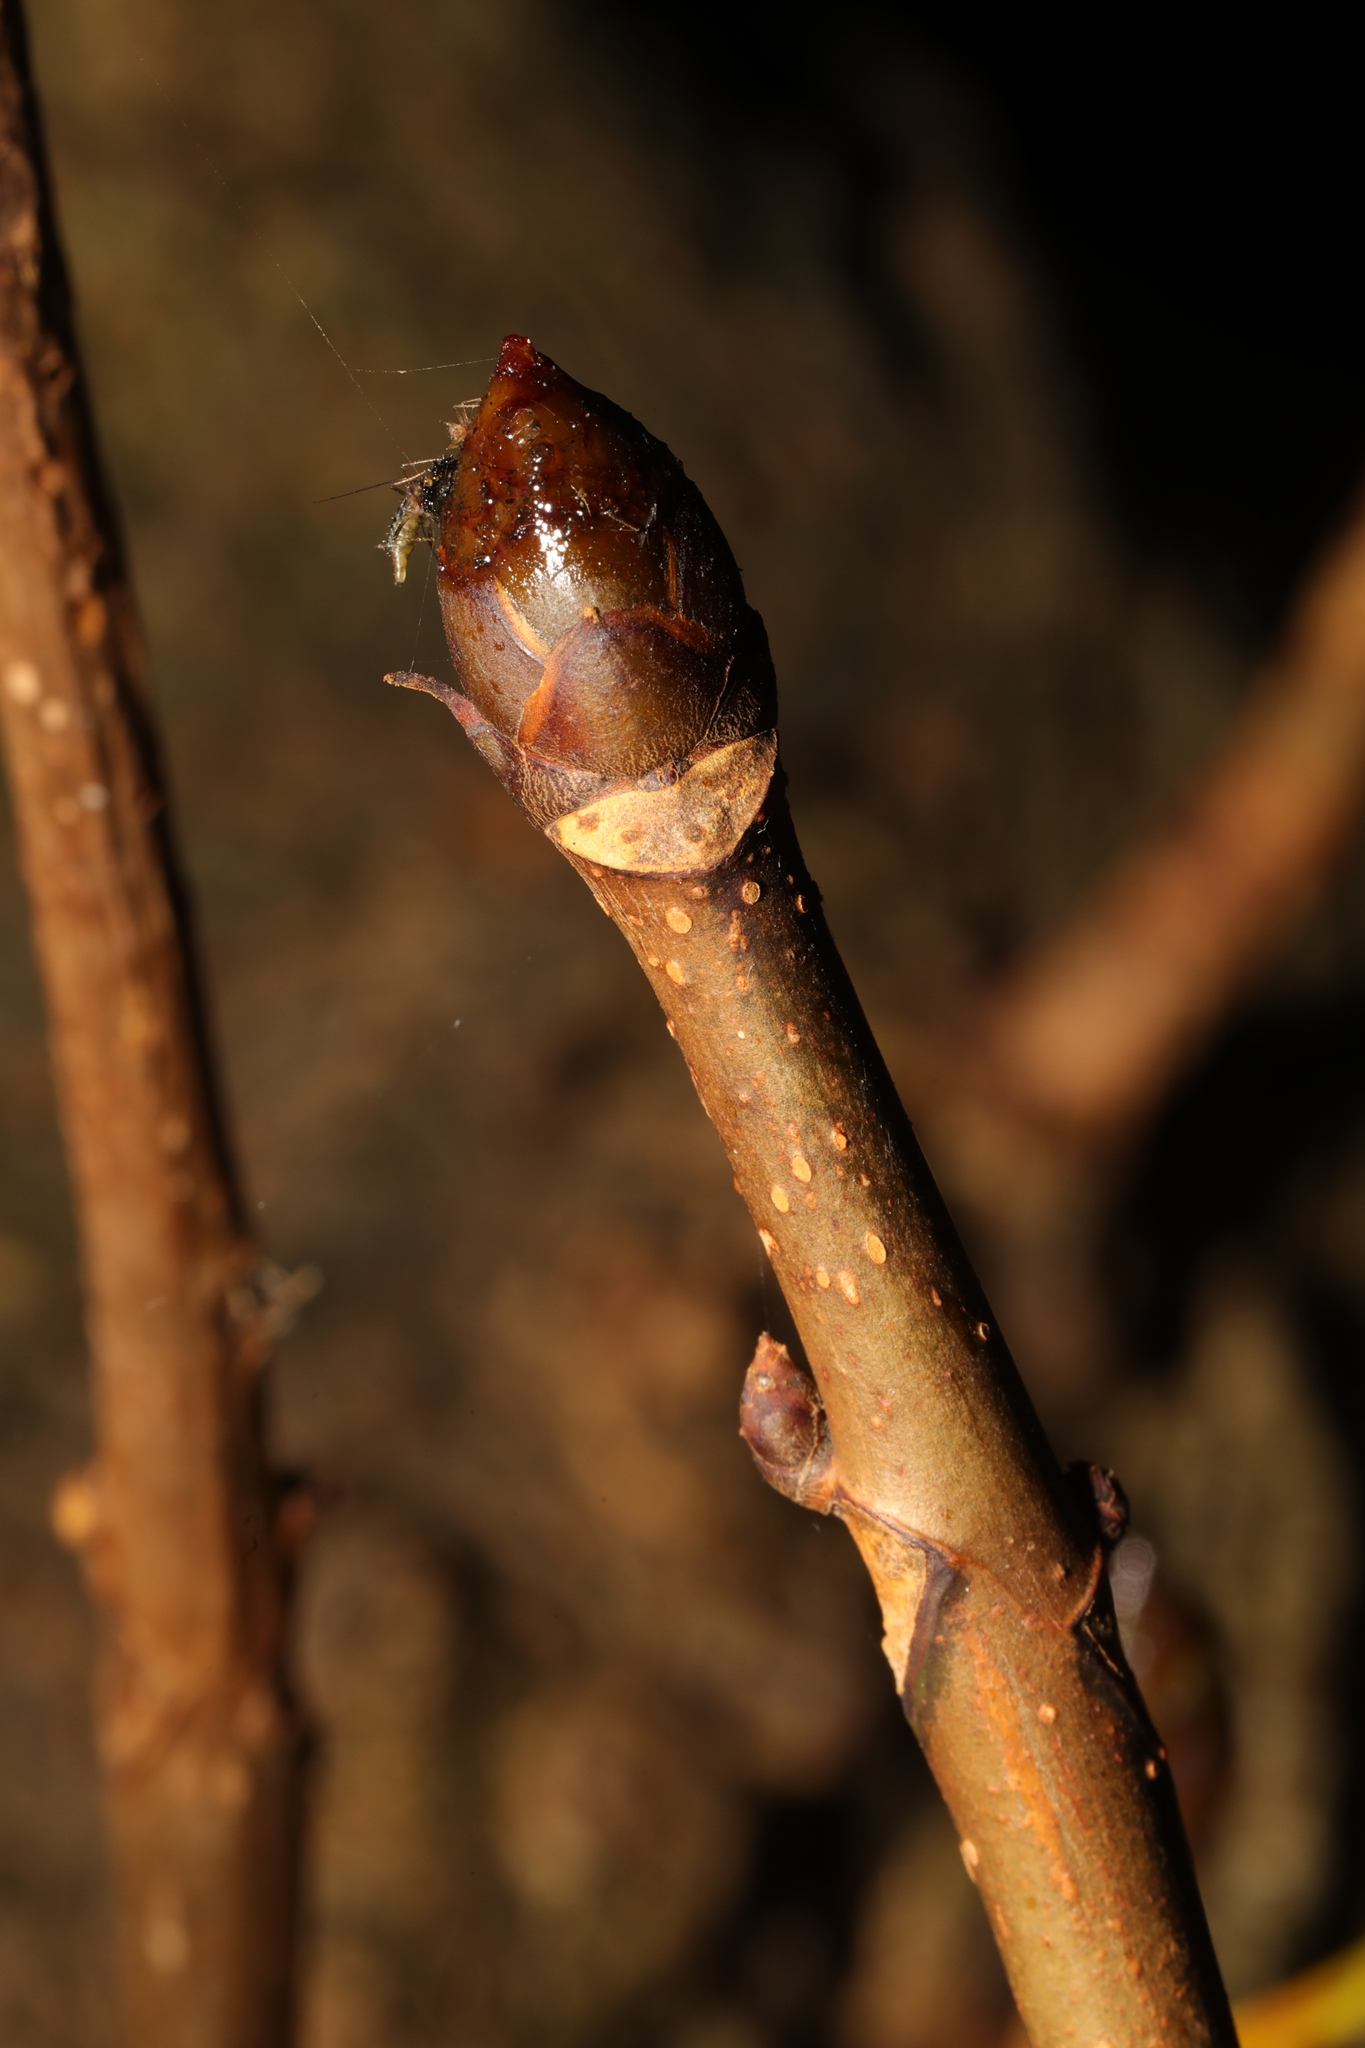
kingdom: Plantae
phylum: Tracheophyta
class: Magnoliopsida
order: Sapindales
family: Sapindaceae
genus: Aesculus
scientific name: Aesculus hippocastanum
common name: Horse-chestnut
